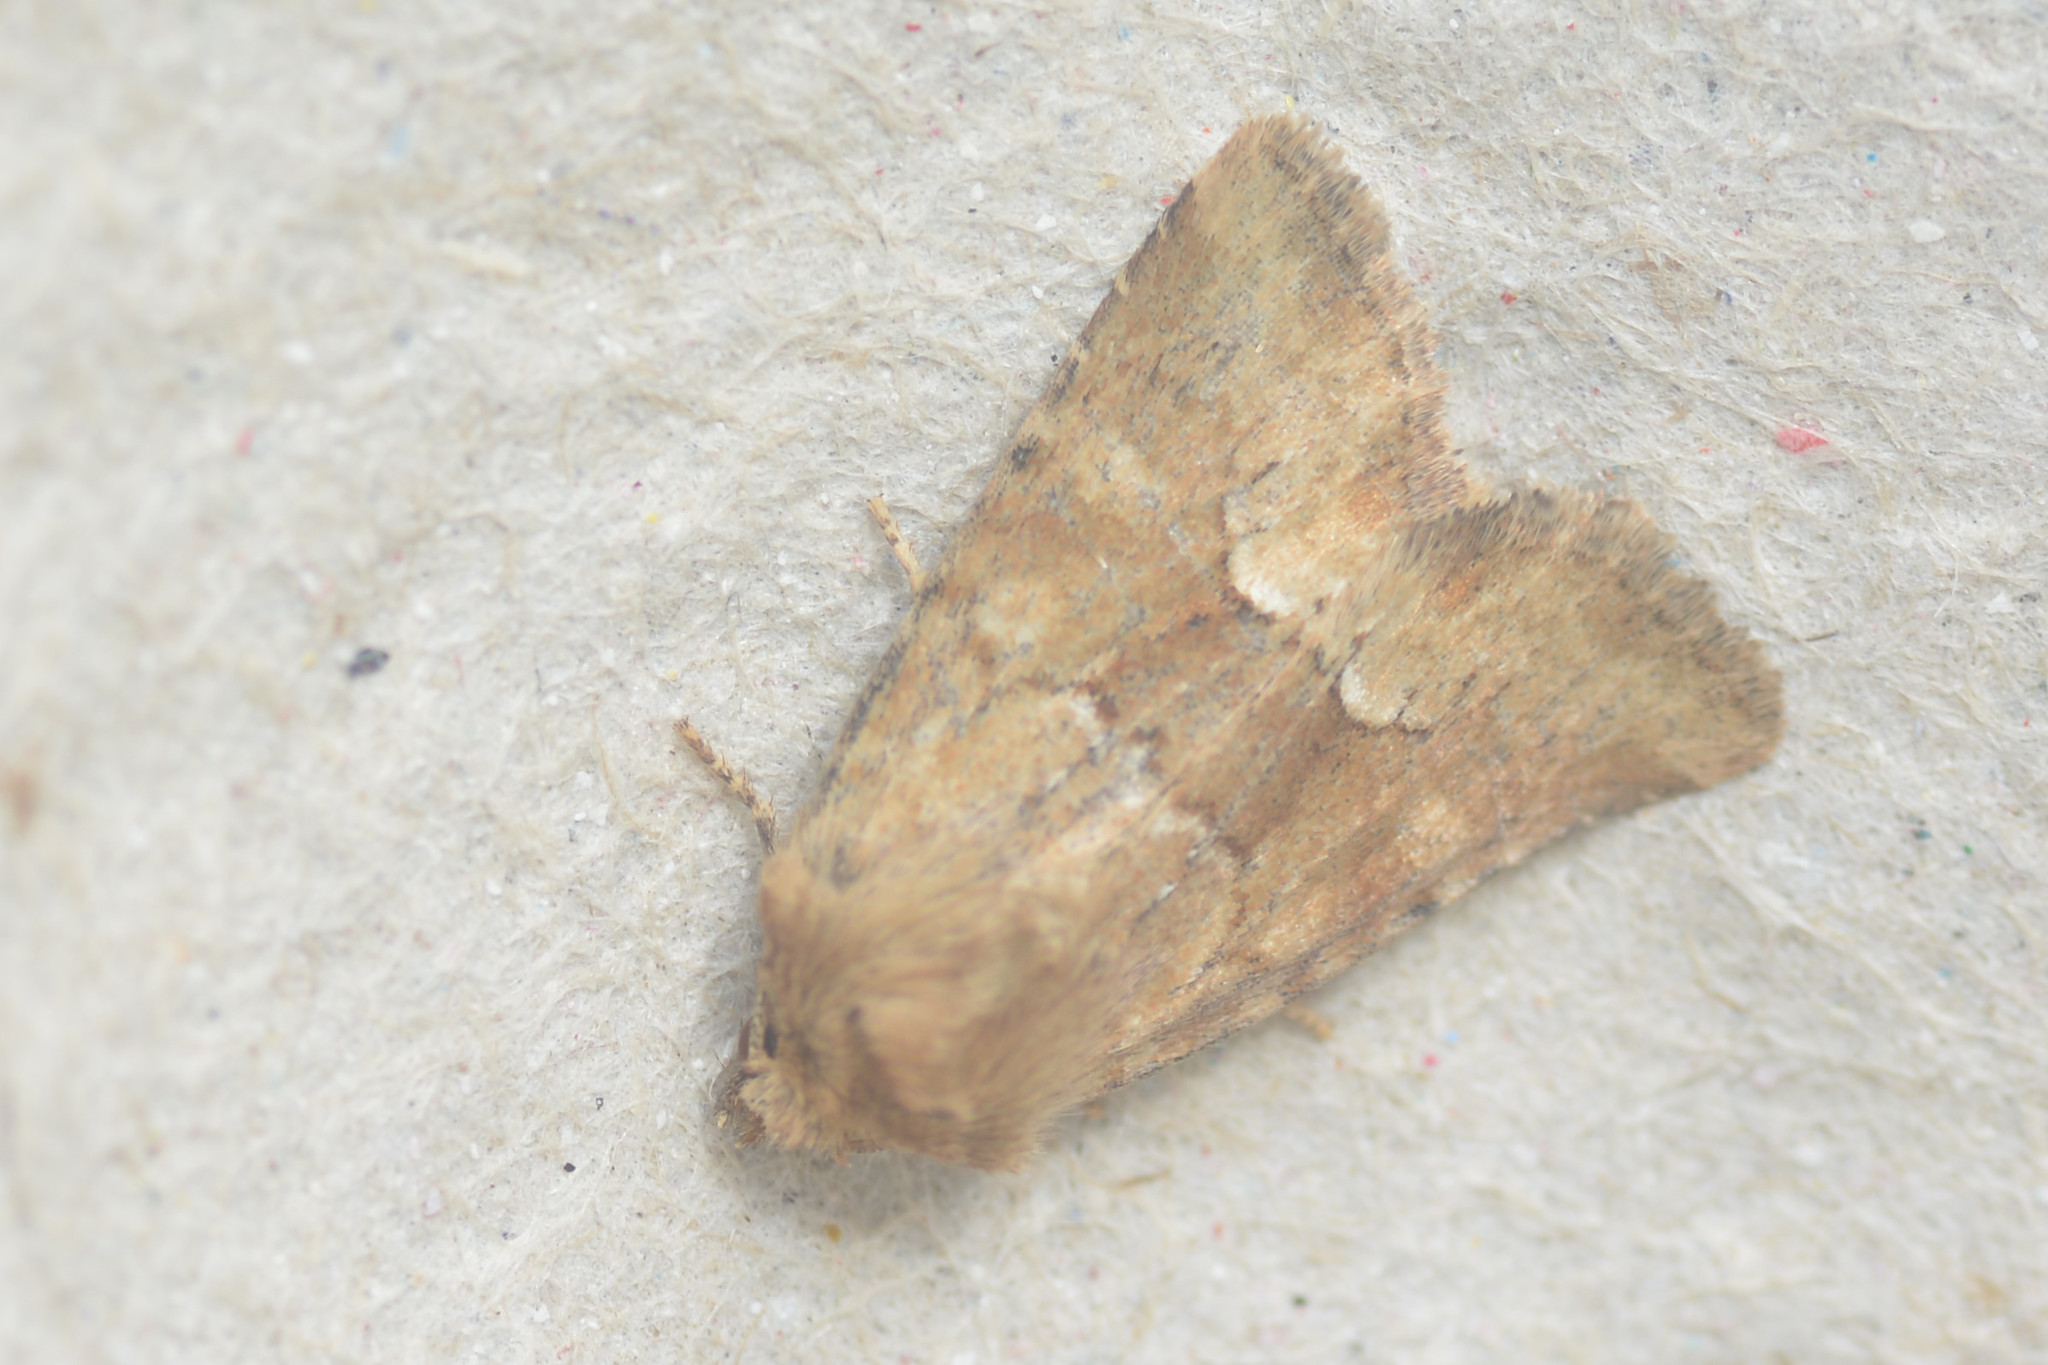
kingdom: Animalia
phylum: Arthropoda
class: Insecta
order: Lepidoptera
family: Noctuidae
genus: Oligia
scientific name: Oligia fasciuncula
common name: Middle-barred minor
